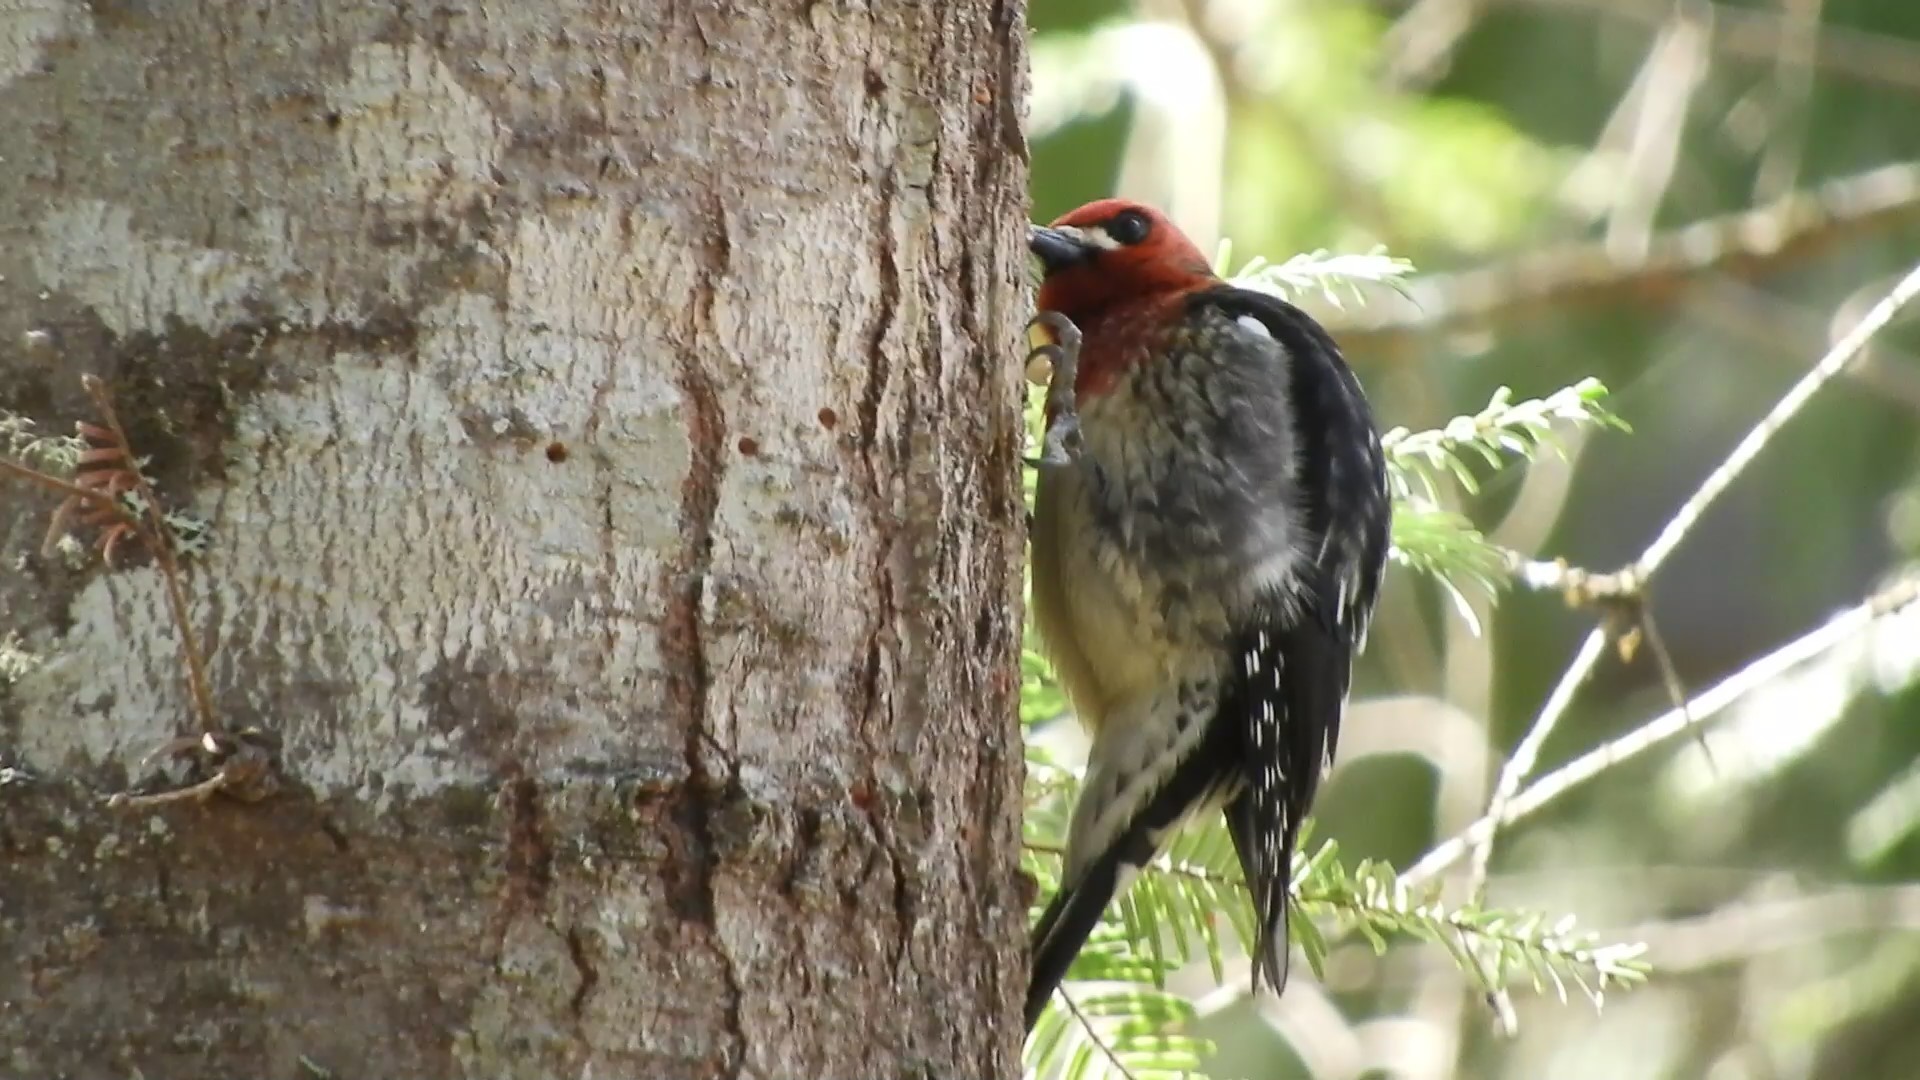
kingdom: Animalia
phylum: Chordata
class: Aves
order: Piciformes
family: Picidae
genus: Sphyrapicus
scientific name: Sphyrapicus ruber
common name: Red-breasted sapsucker
